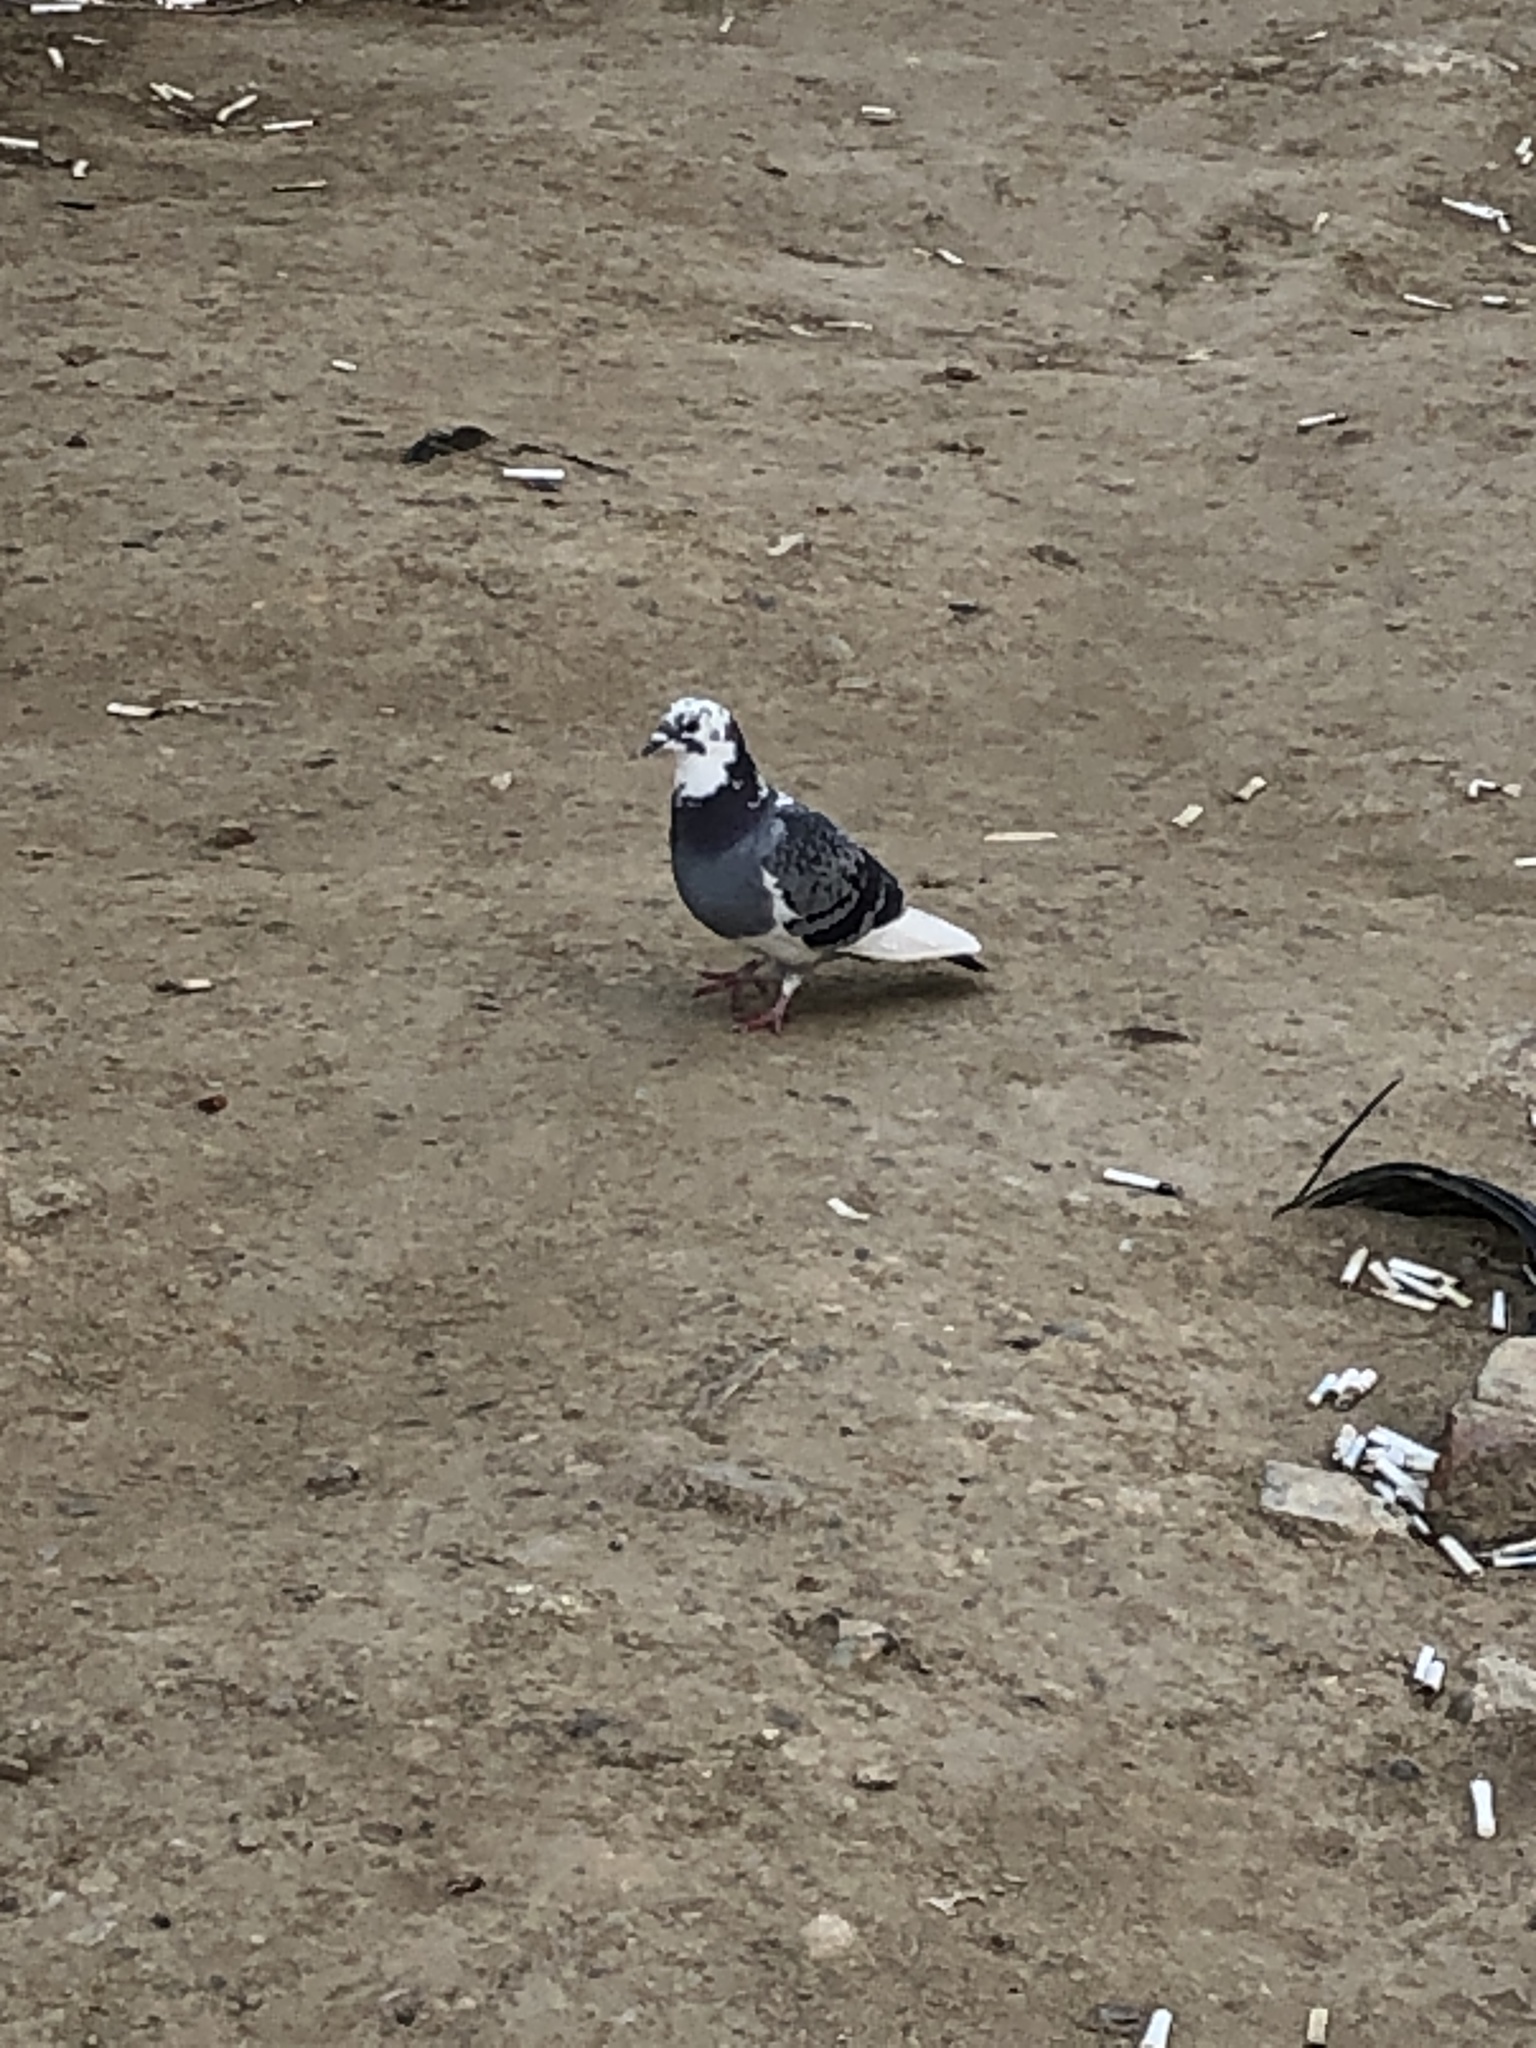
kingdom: Animalia
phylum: Chordata
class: Aves
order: Columbiformes
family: Columbidae
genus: Columba
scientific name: Columba livia
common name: Rock pigeon
